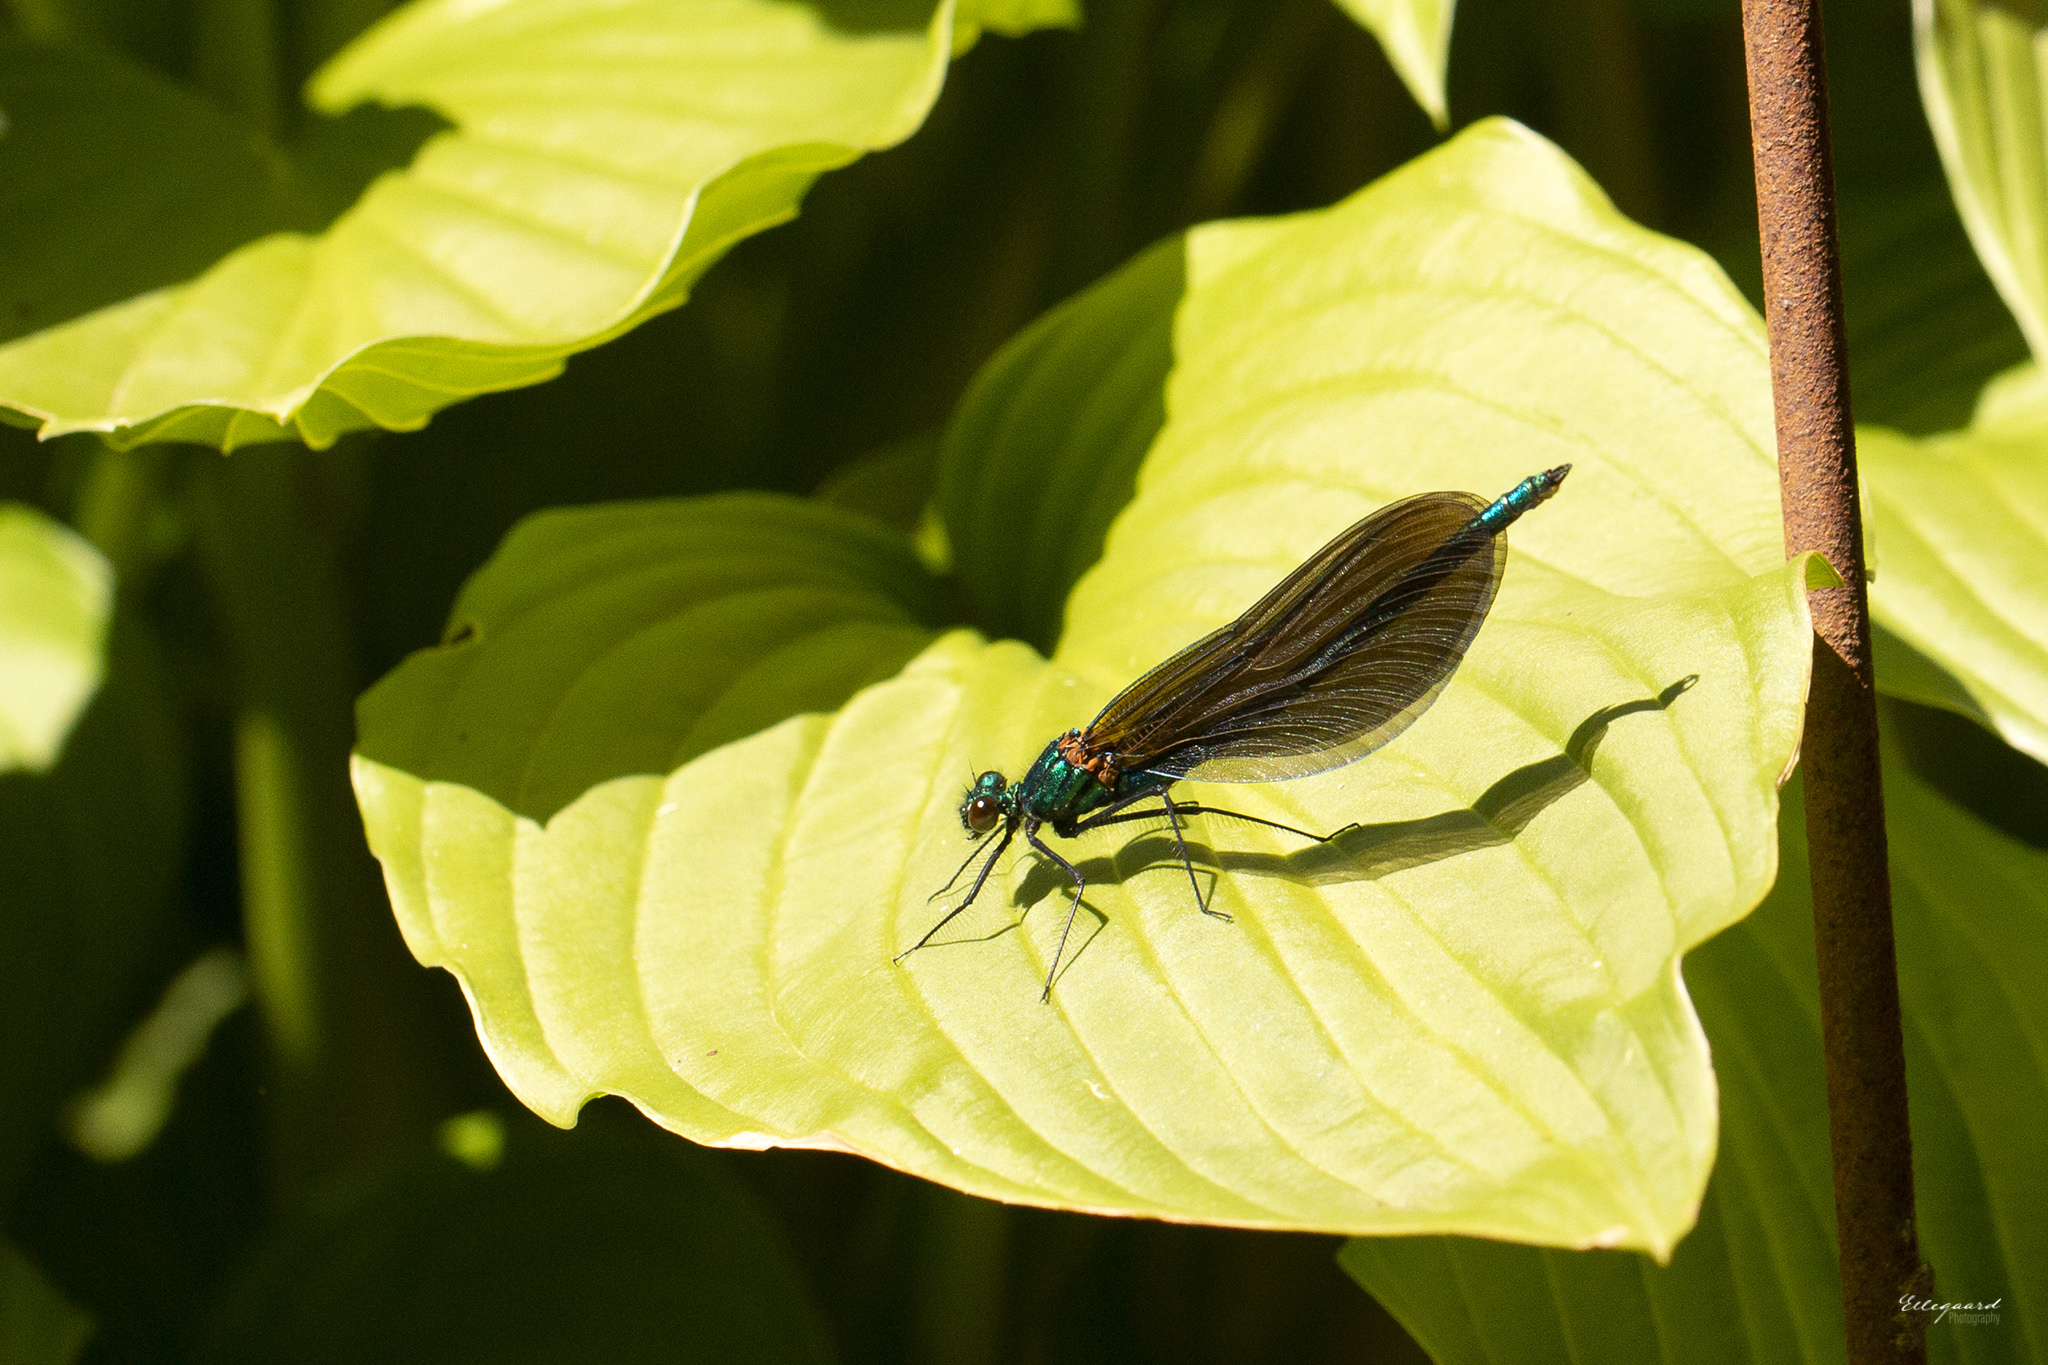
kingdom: Animalia
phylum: Arthropoda
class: Insecta
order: Odonata
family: Calopterygidae
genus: Calopteryx
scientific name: Calopteryx virgo
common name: Beautiful demoiselle
